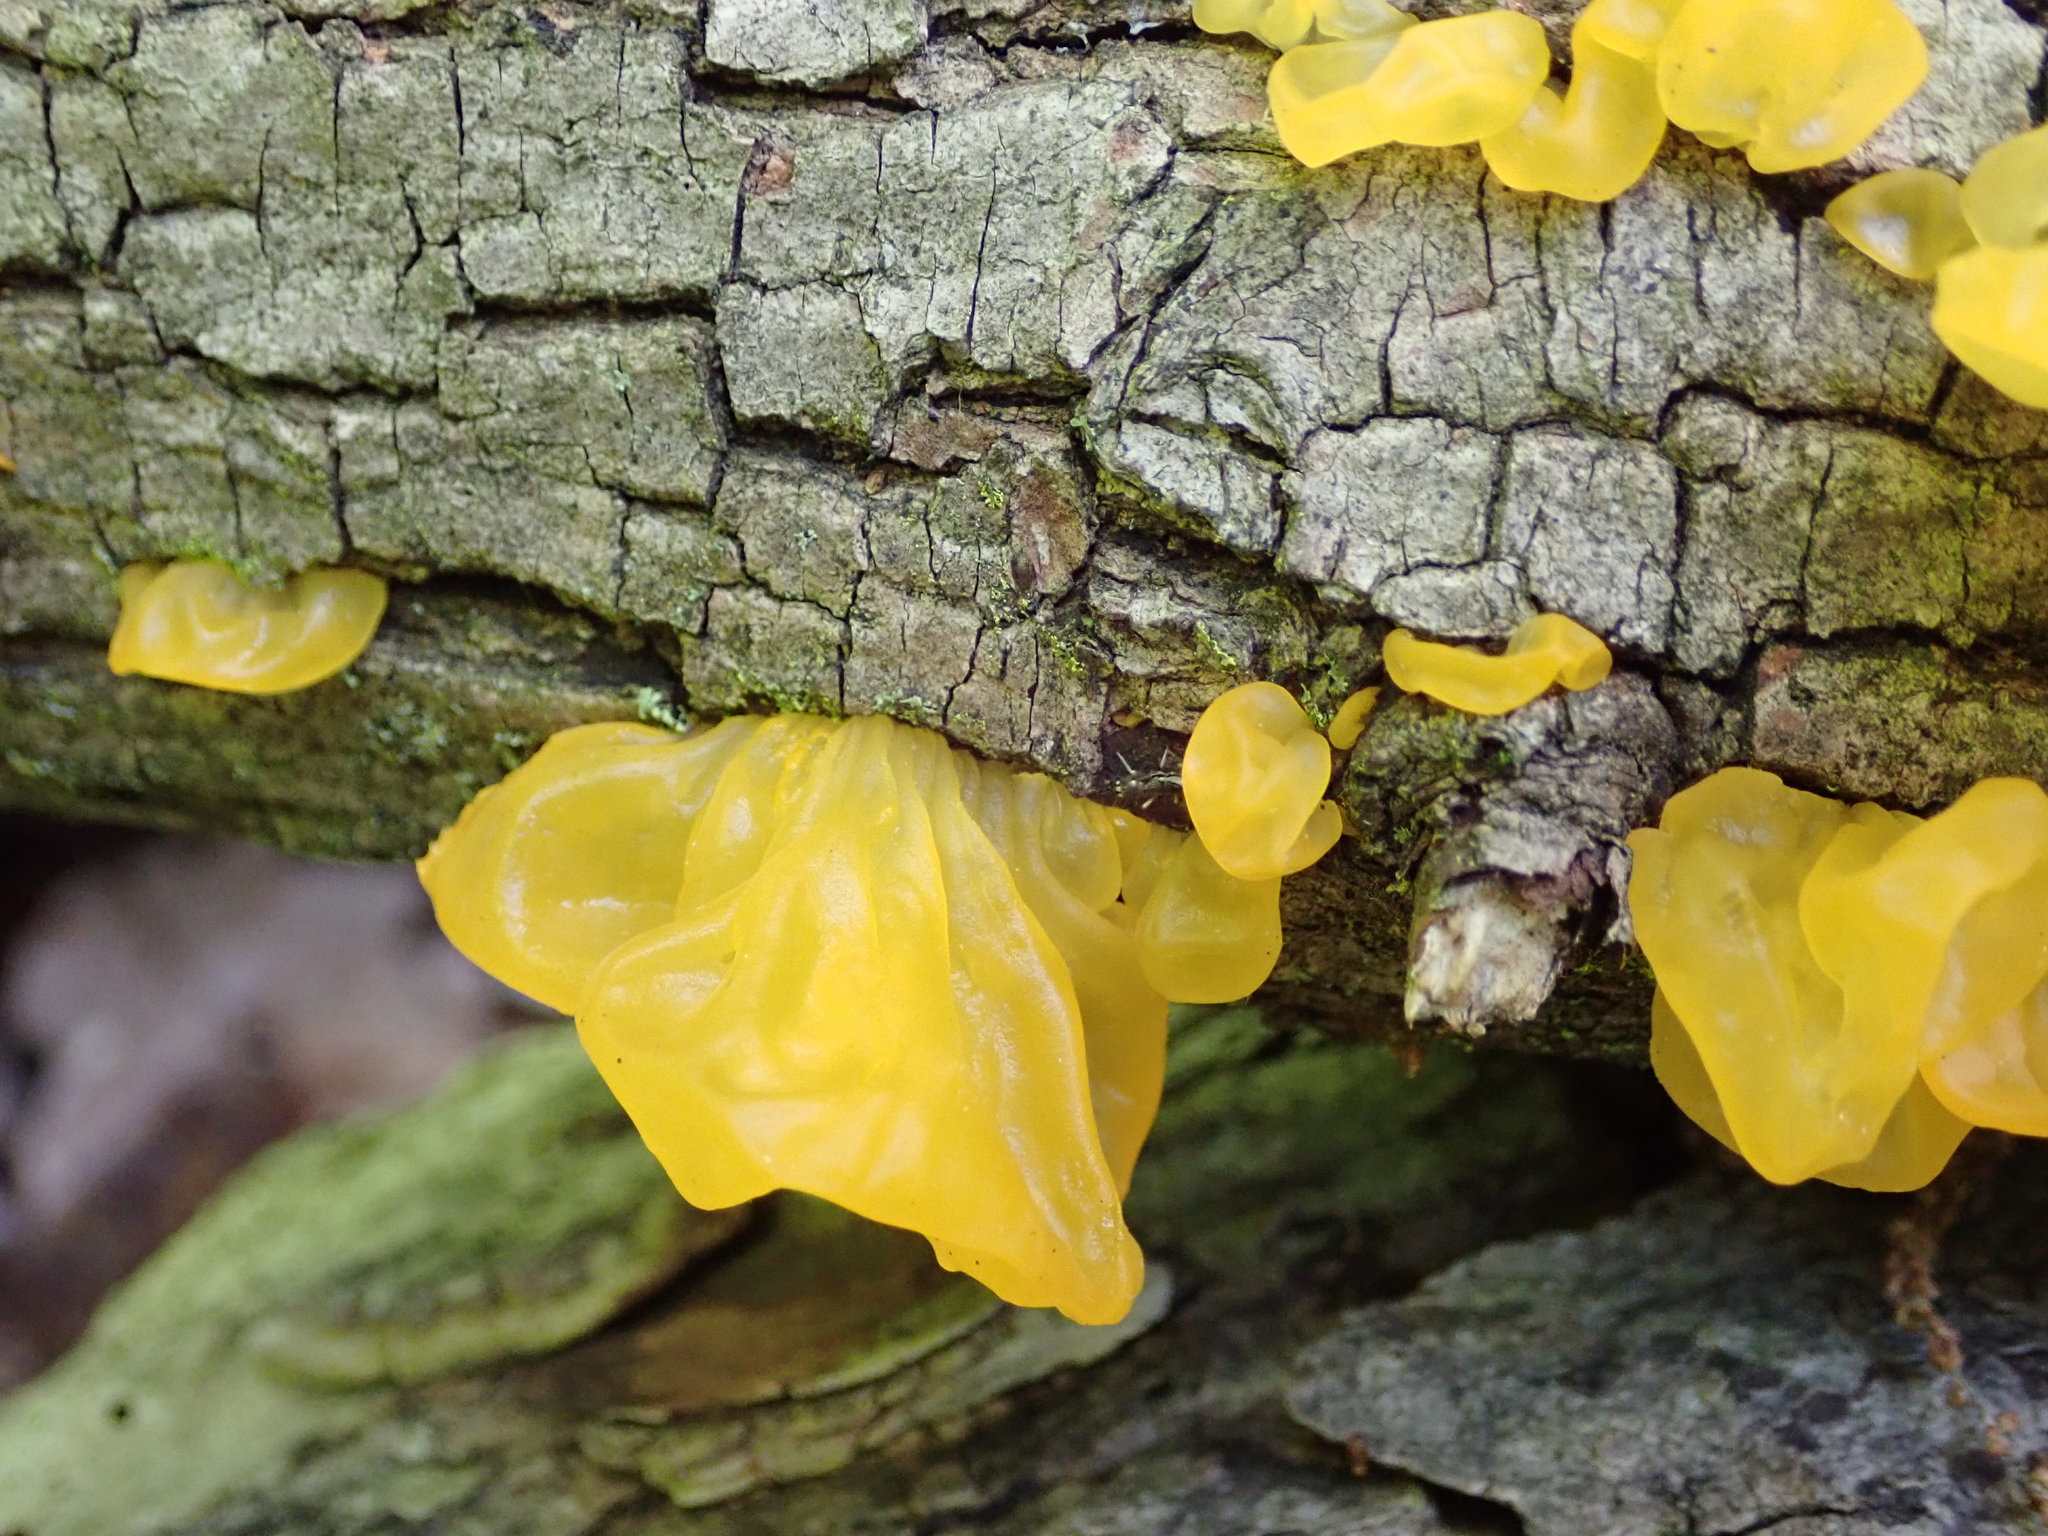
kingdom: Fungi
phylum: Basidiomycota
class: Tremellomycetes
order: Tremellales
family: Tremellaceae
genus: Tremella
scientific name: Tremella mesenterica
